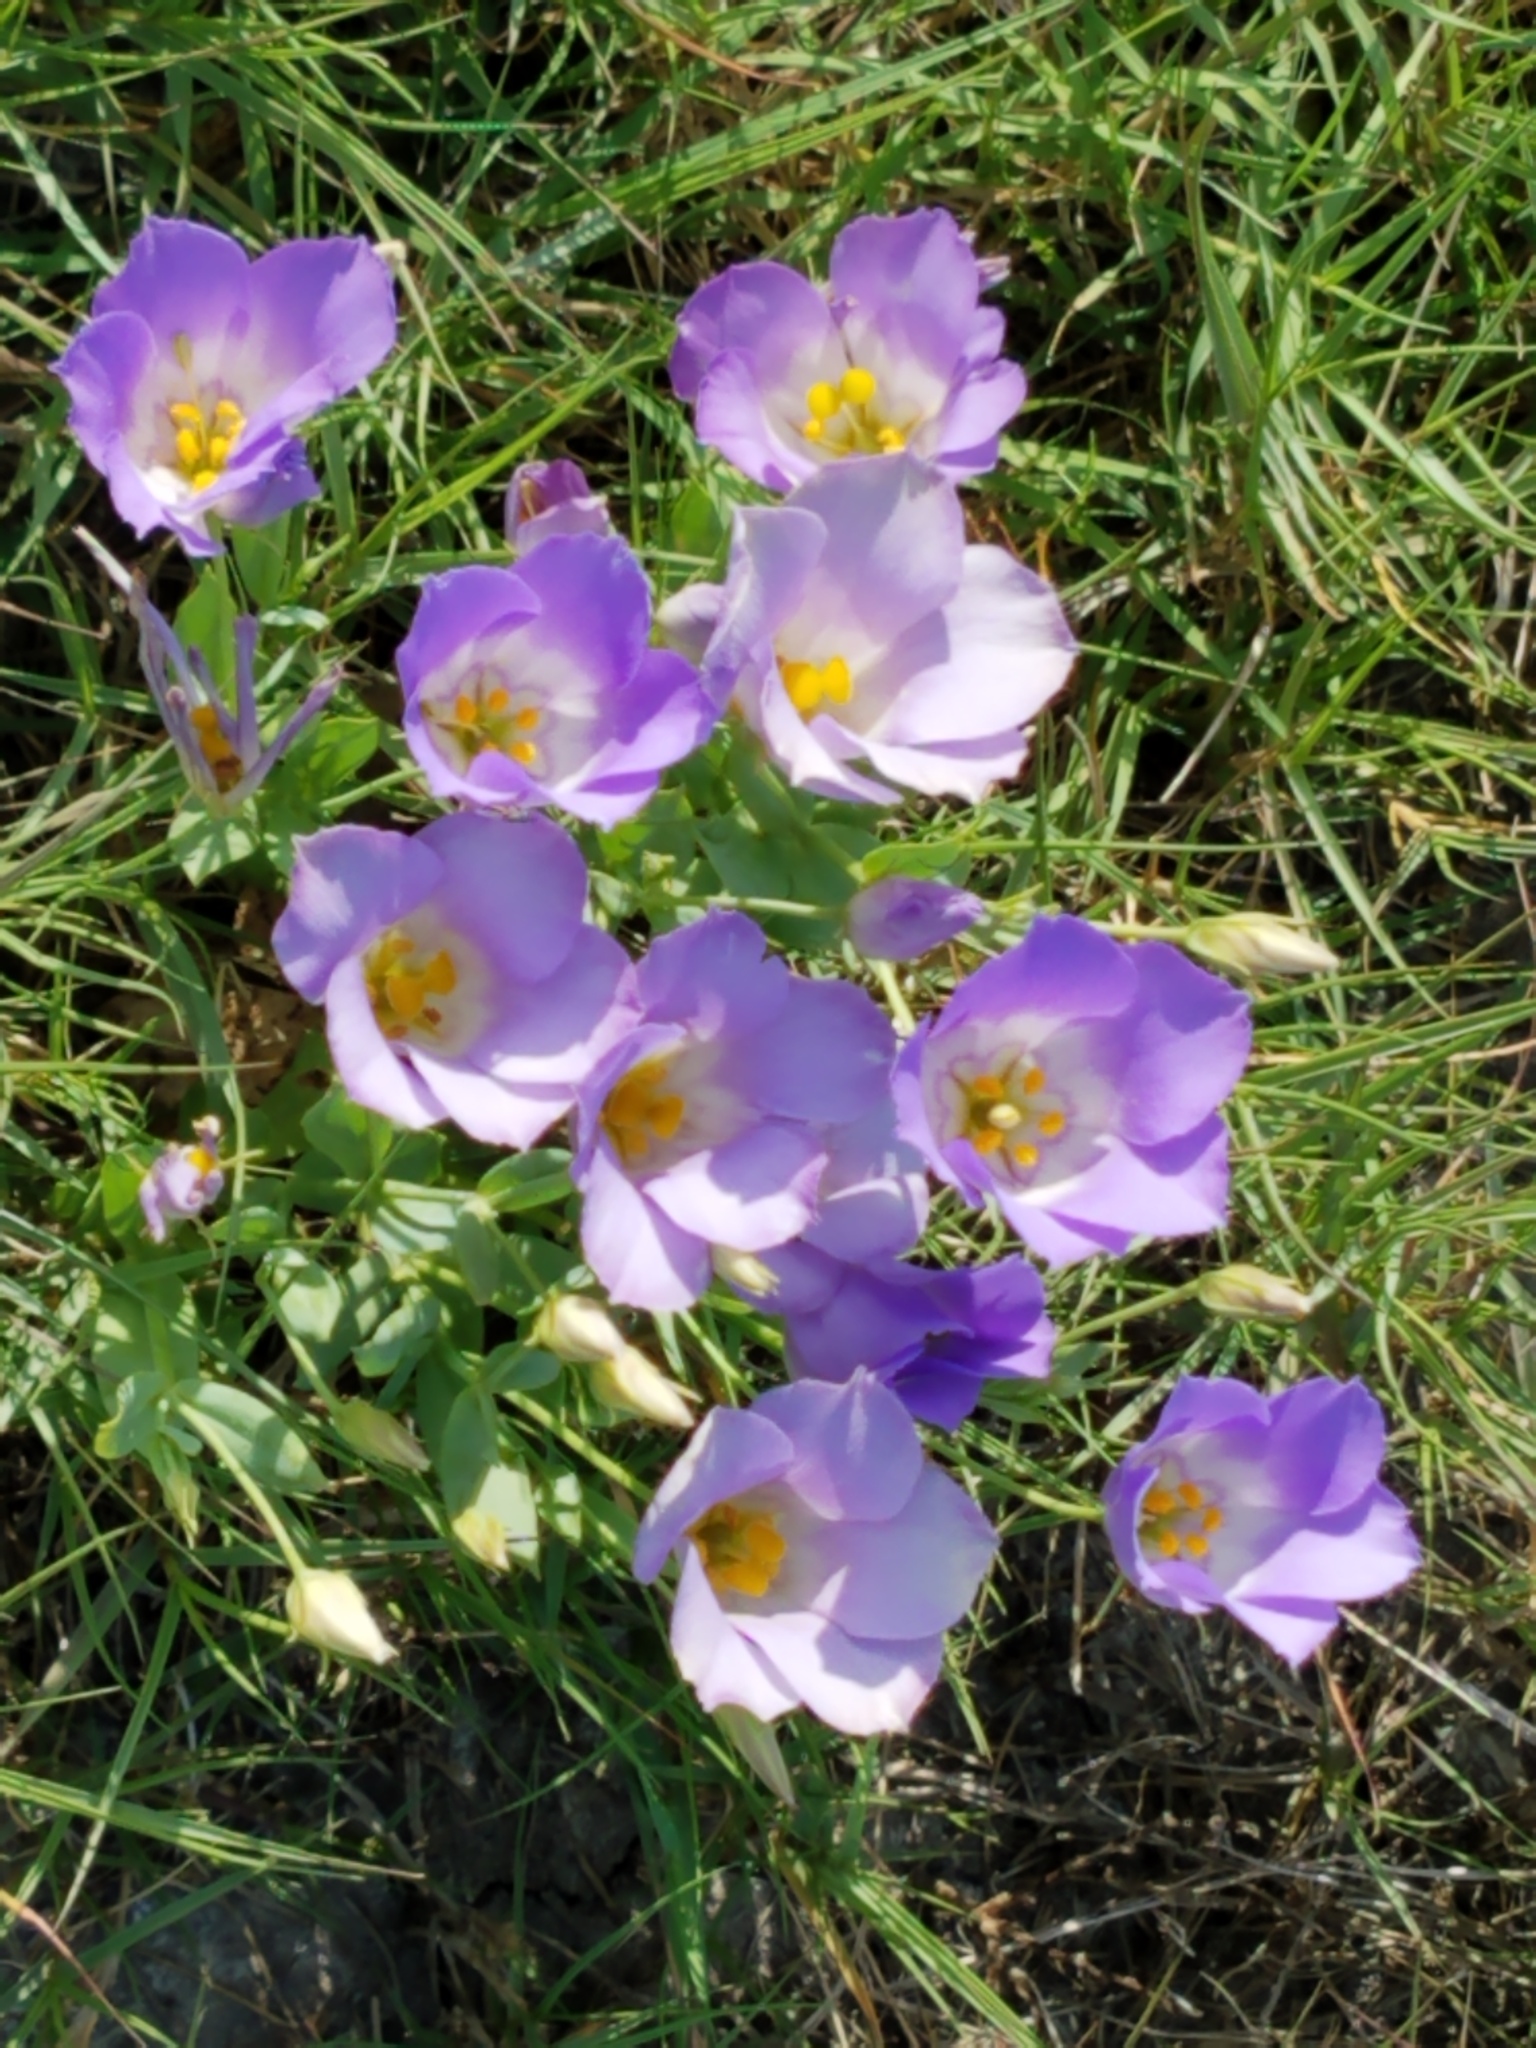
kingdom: Plantae
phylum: Tracheophyta
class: Magnoliopsida
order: Gentianales
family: Gentianaceae
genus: Eustoma
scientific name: Eustoma exaltatum
